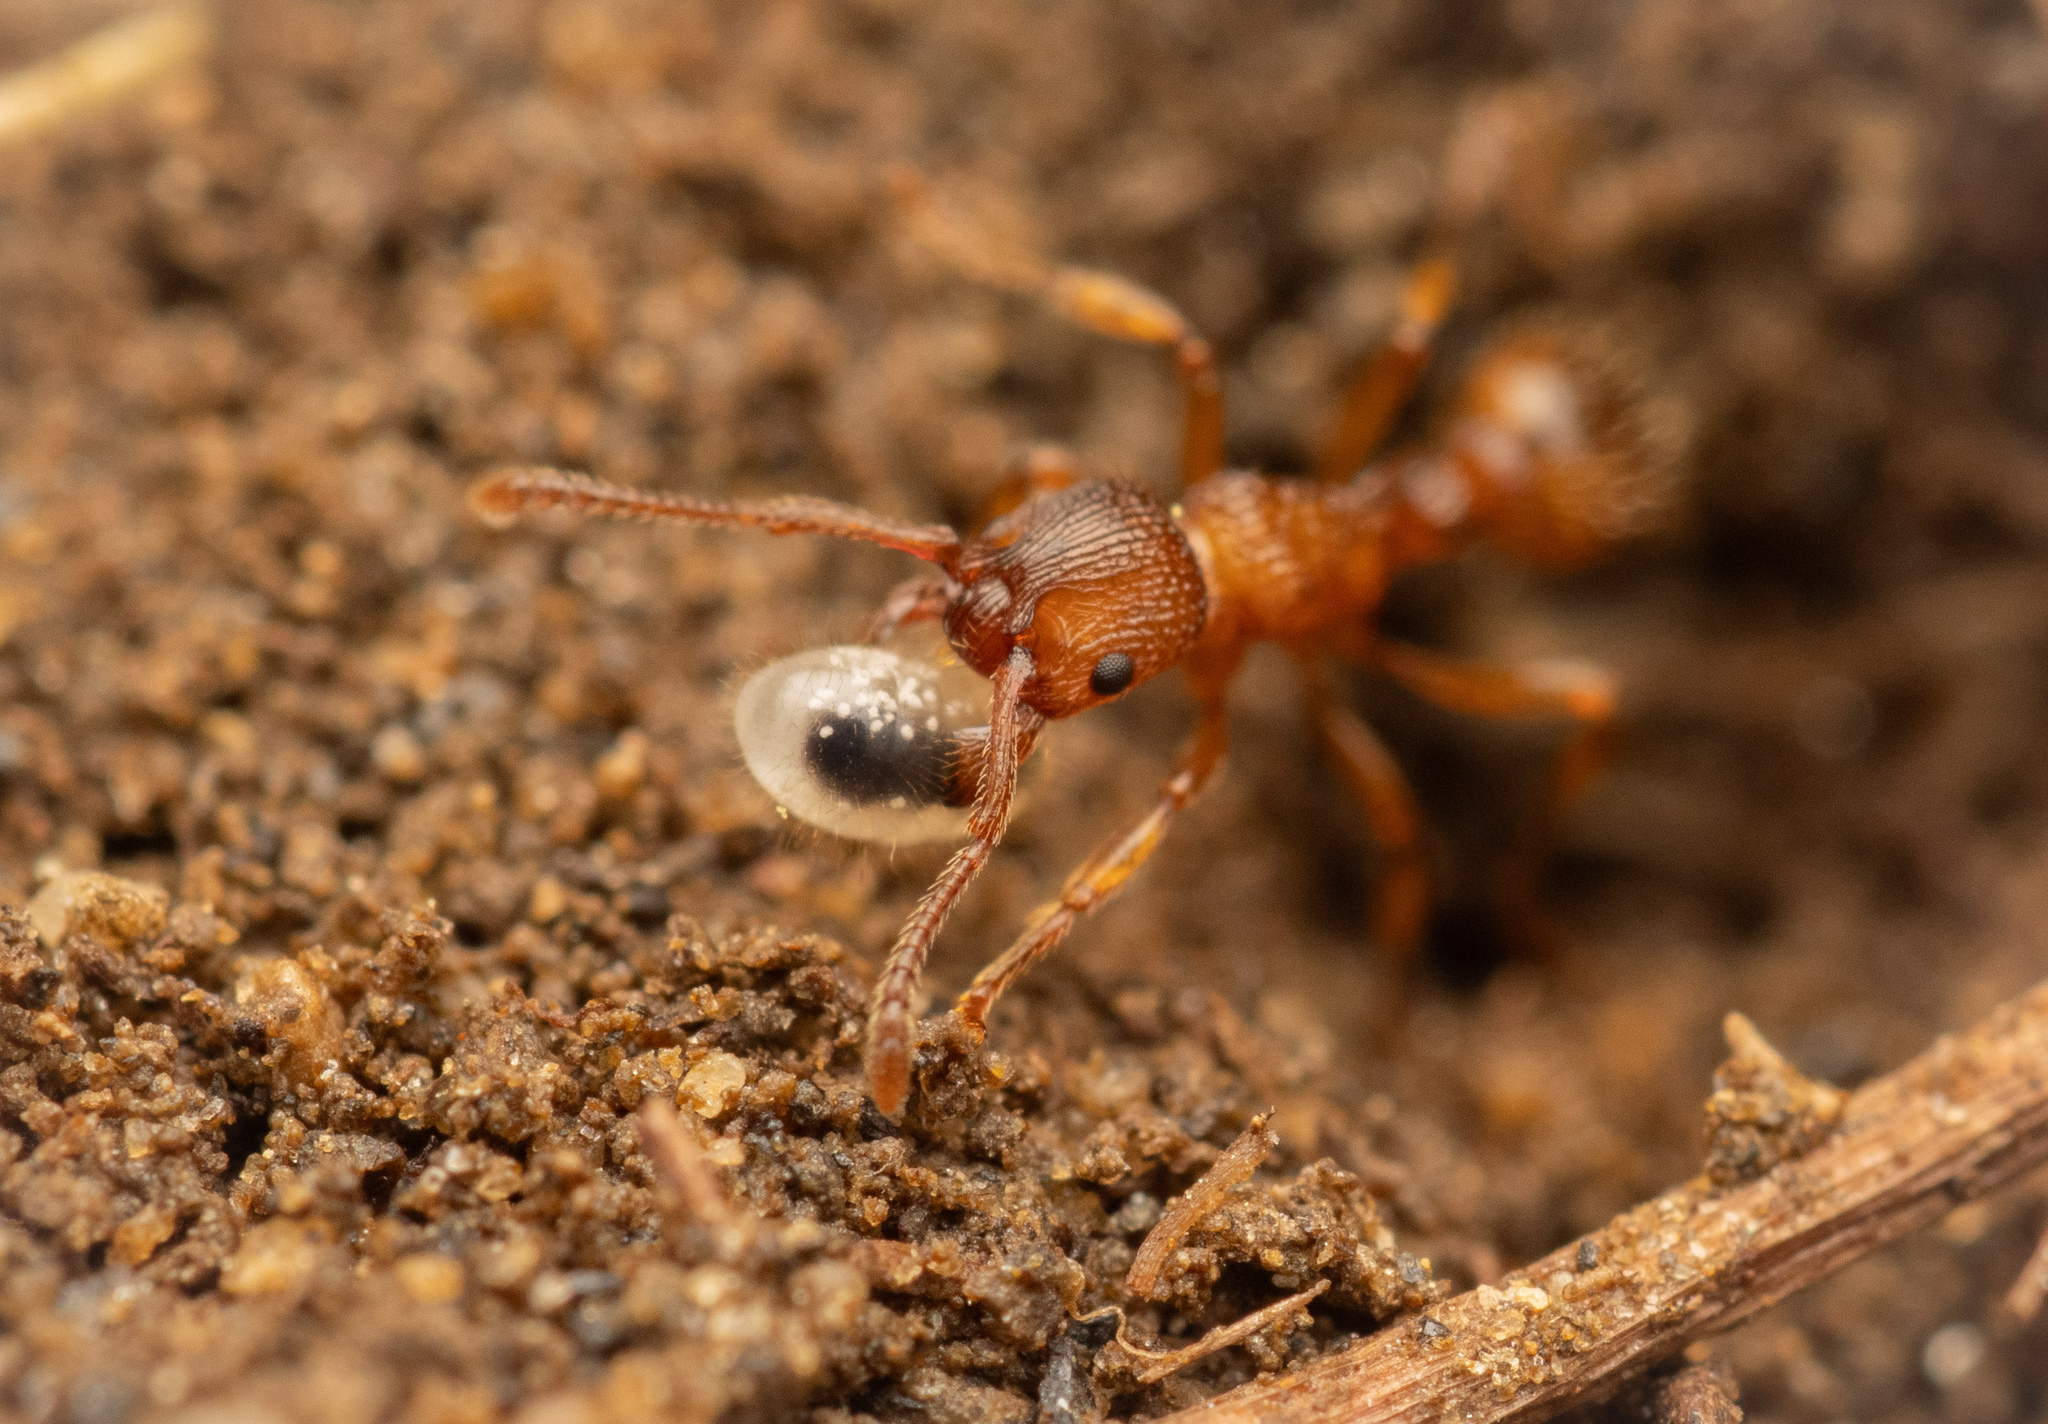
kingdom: Animalia
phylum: Arthropoda
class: Insecta
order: Hymenoptera
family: Formicidae
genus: Myrmica
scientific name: Myrmica sabuleti
